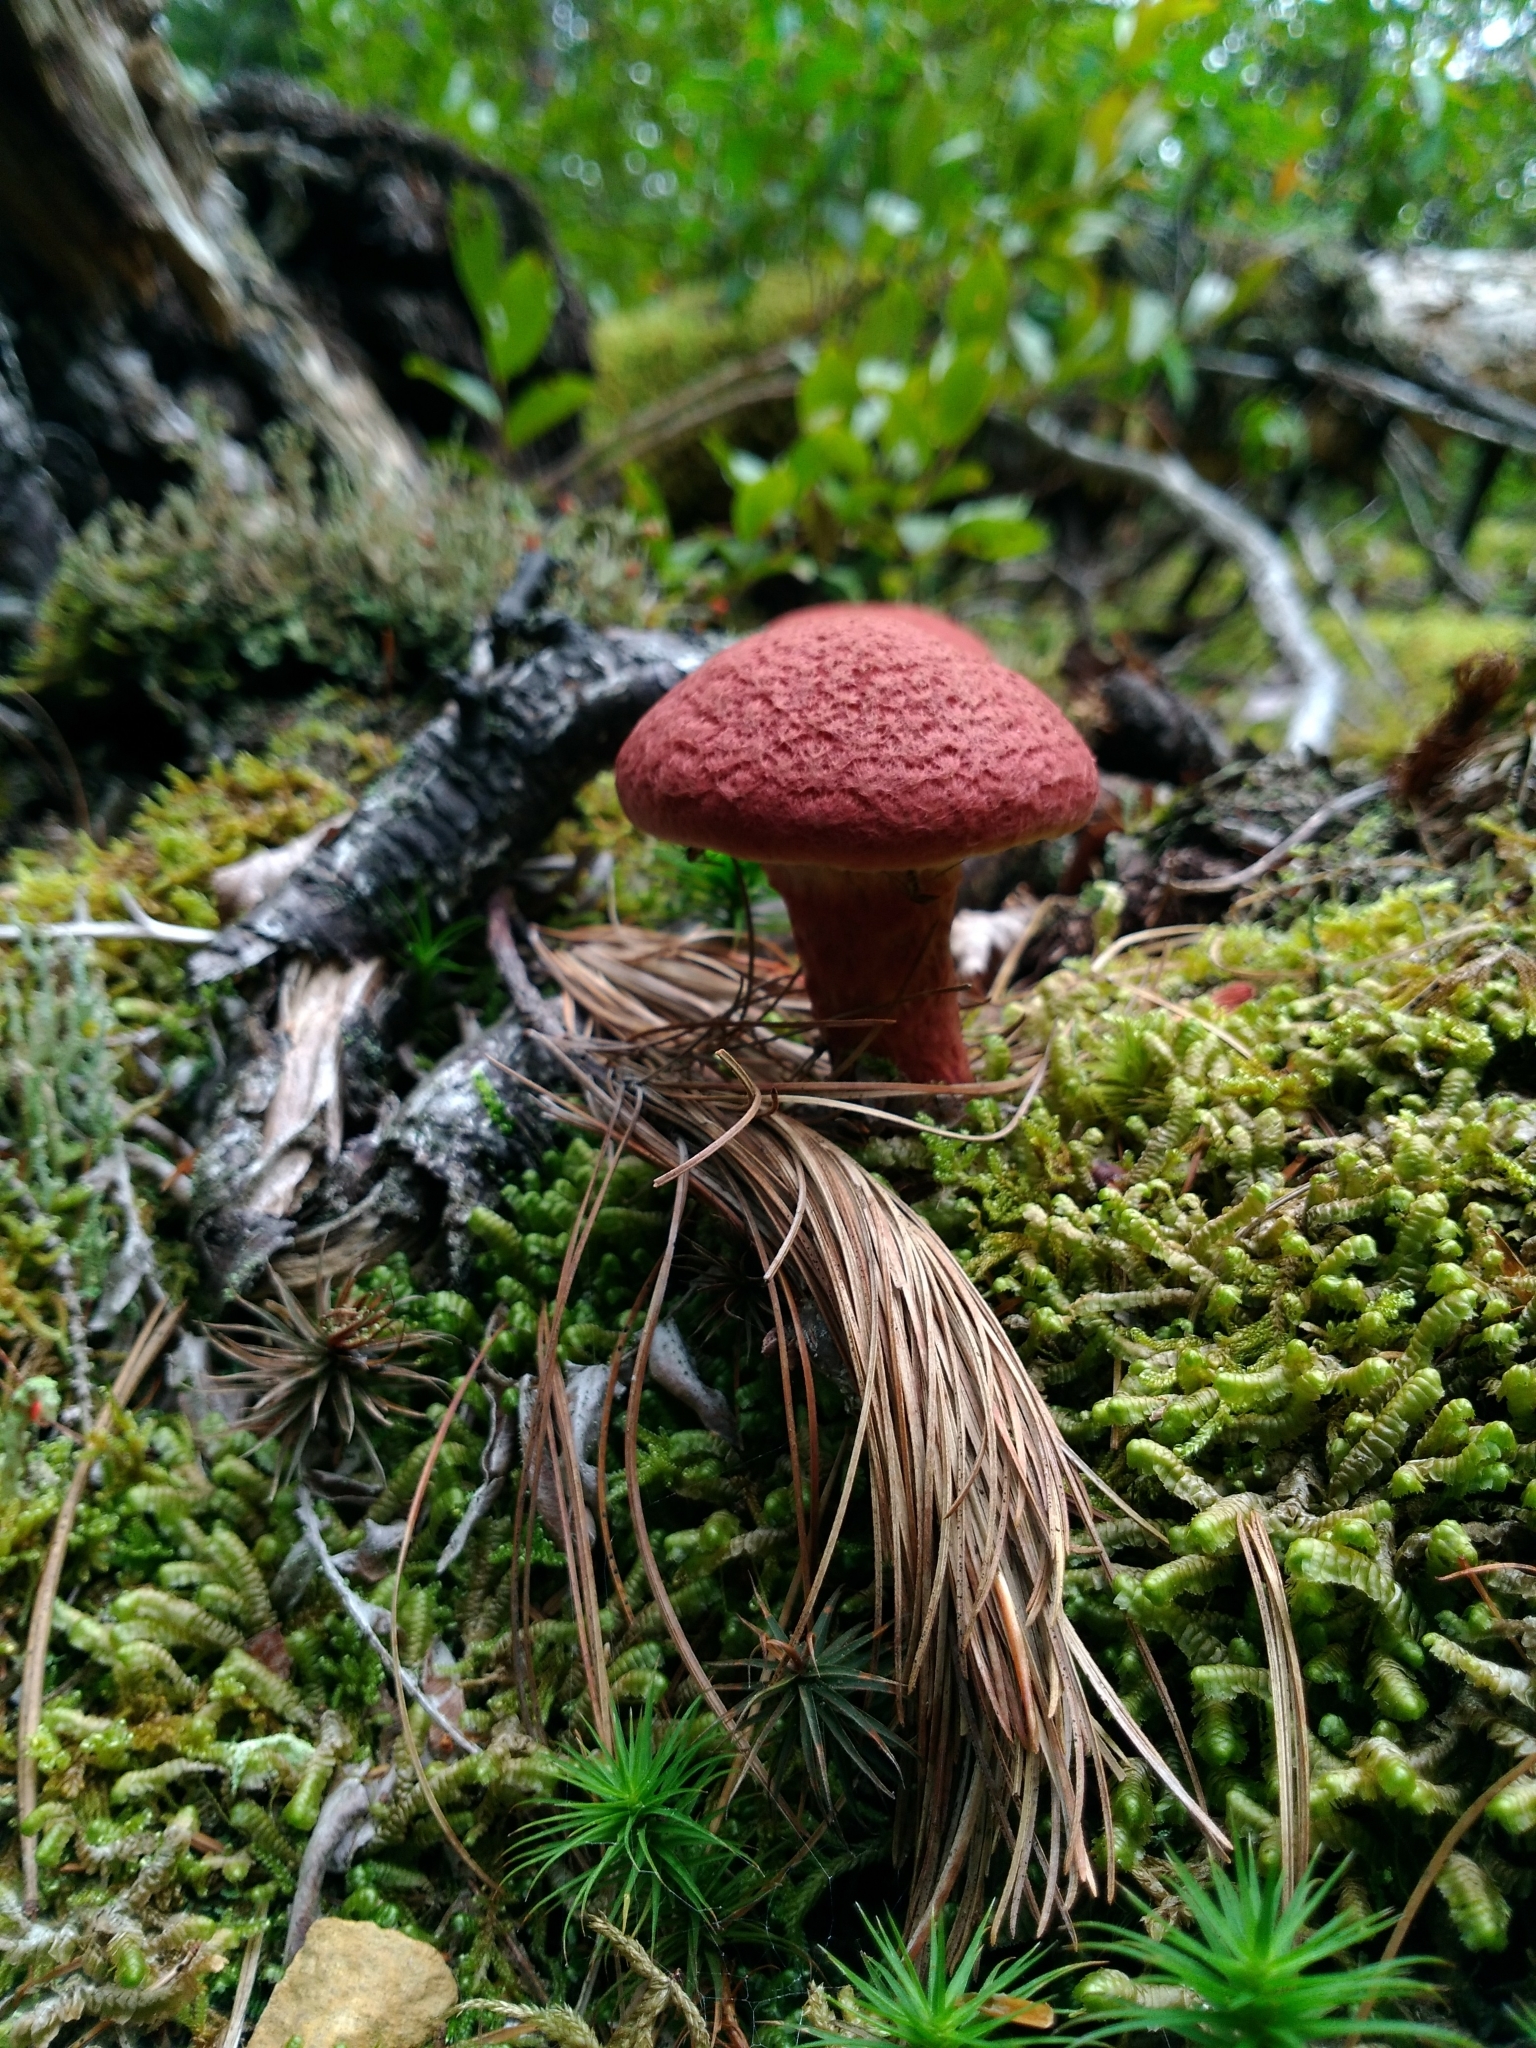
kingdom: Fungi
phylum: Basidiomycota
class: Agaricomycetes
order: Boletales
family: Suillaceae
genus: Suillus
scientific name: Suillus spraguei
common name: Painted suillus
